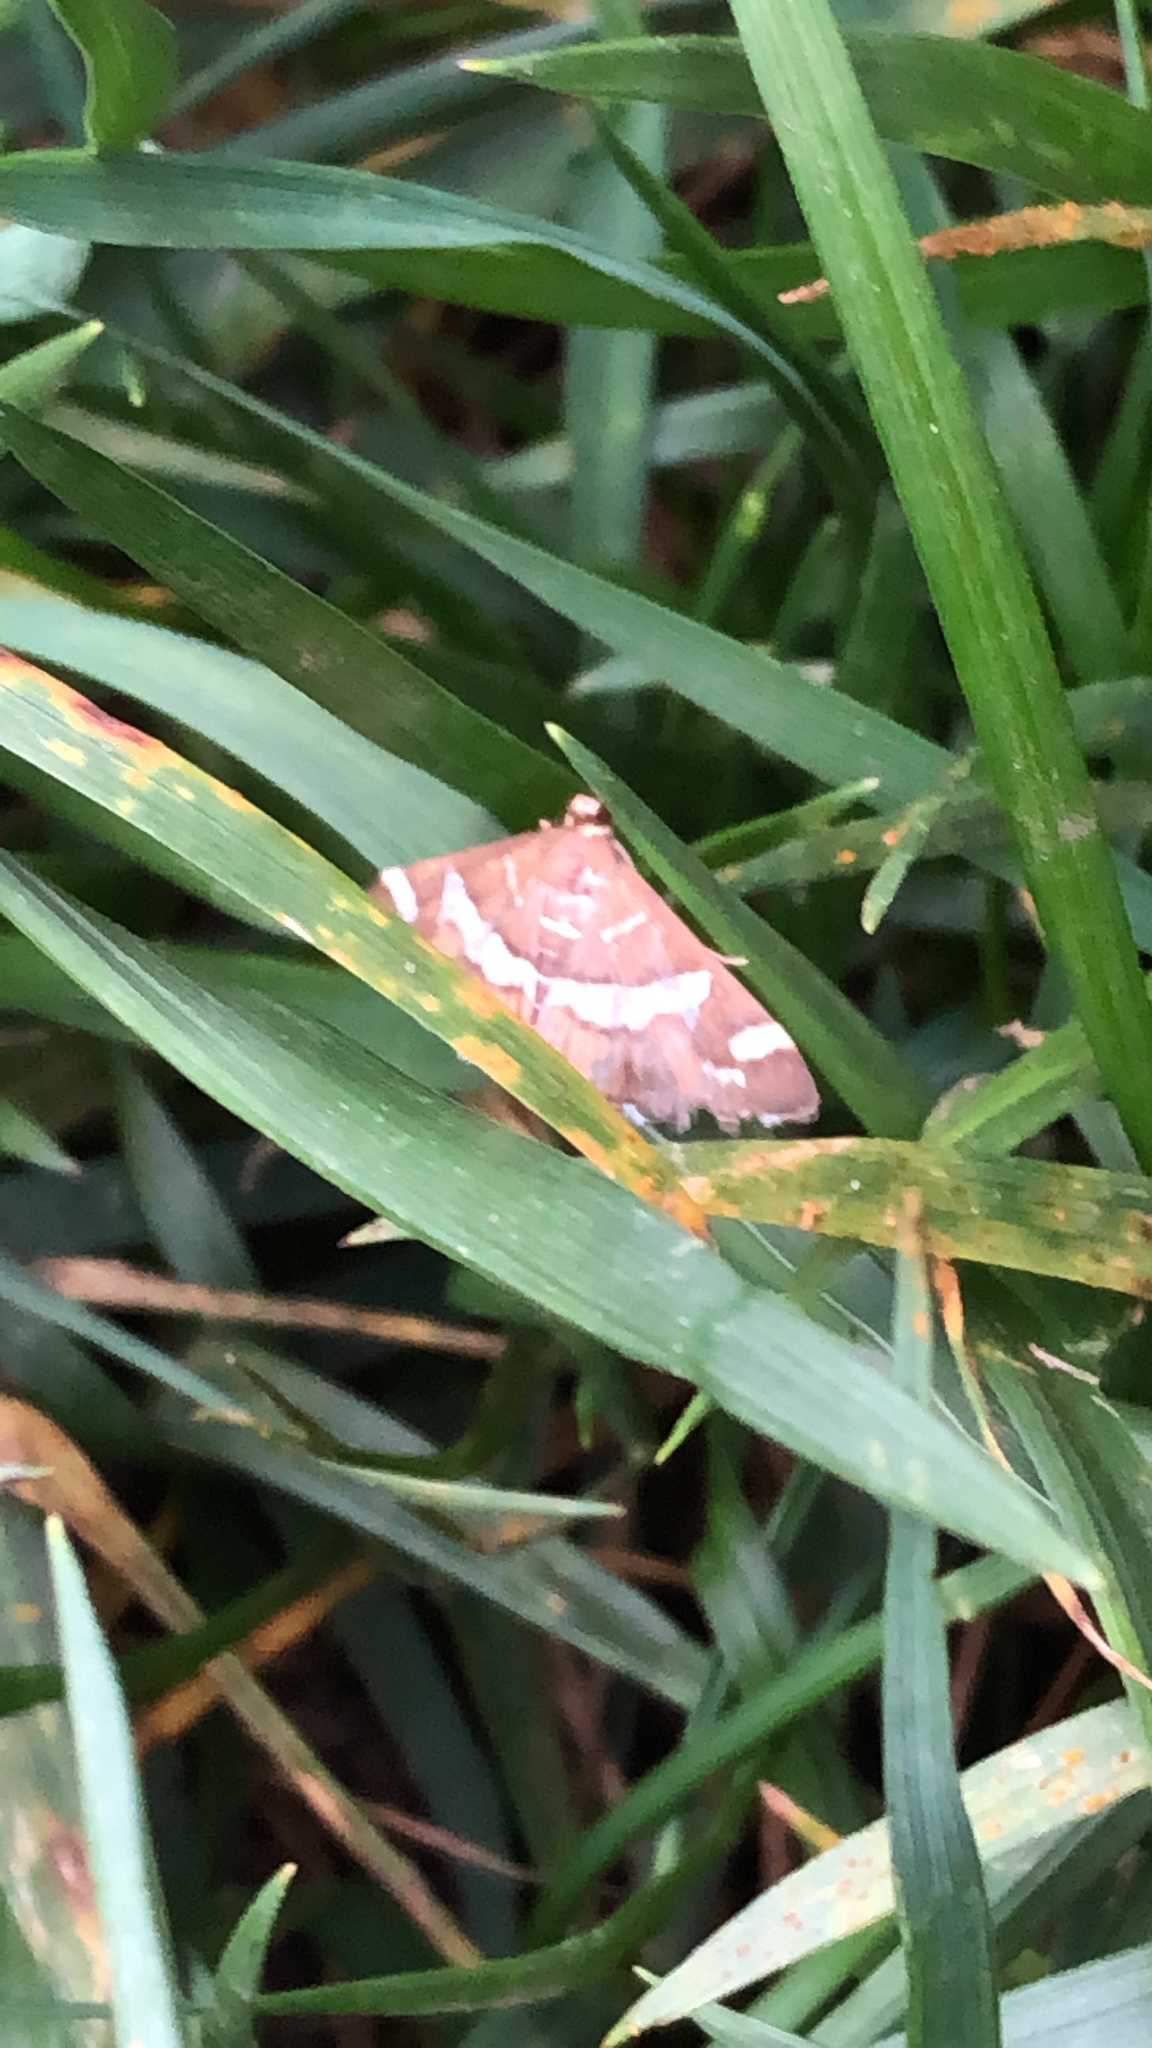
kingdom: Animalia
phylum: Arthropoda
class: Insecta
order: Lepidoptera
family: Crambidae
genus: Spoladea
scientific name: Spoladea recurvalis
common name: Beet webworm moth
